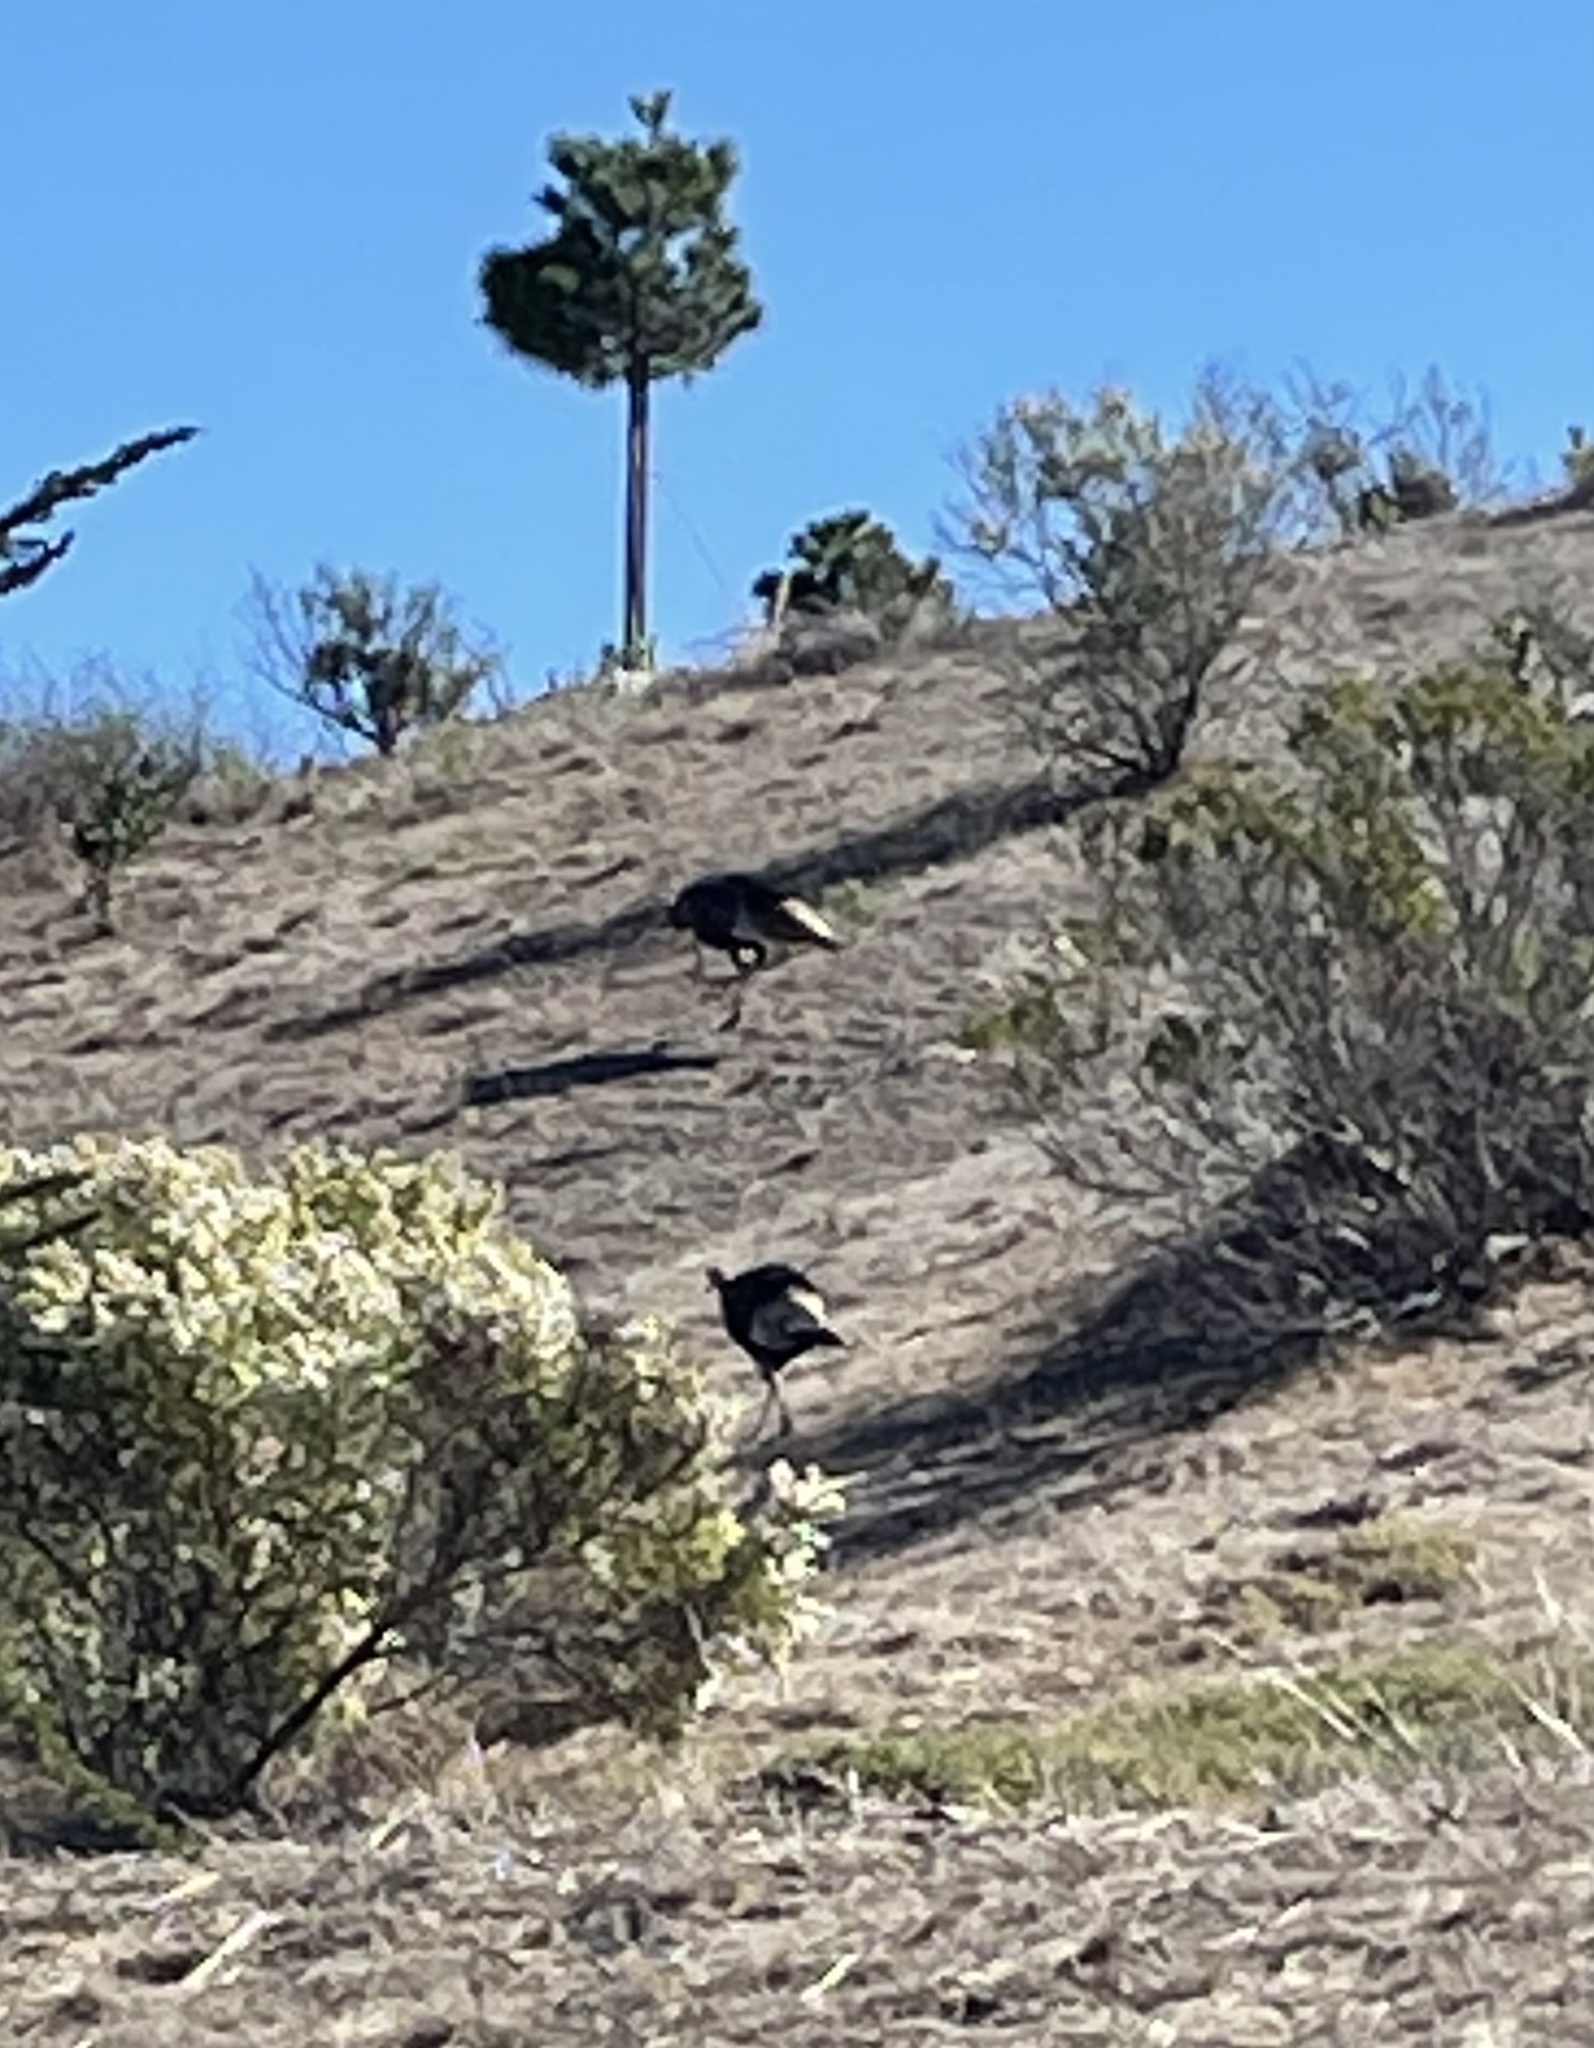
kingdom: Animalia
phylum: Chordata
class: Aves
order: Galliformes
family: Phasianidae
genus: Meleagris
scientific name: Meleagris gallopavo
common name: Wild turkey
